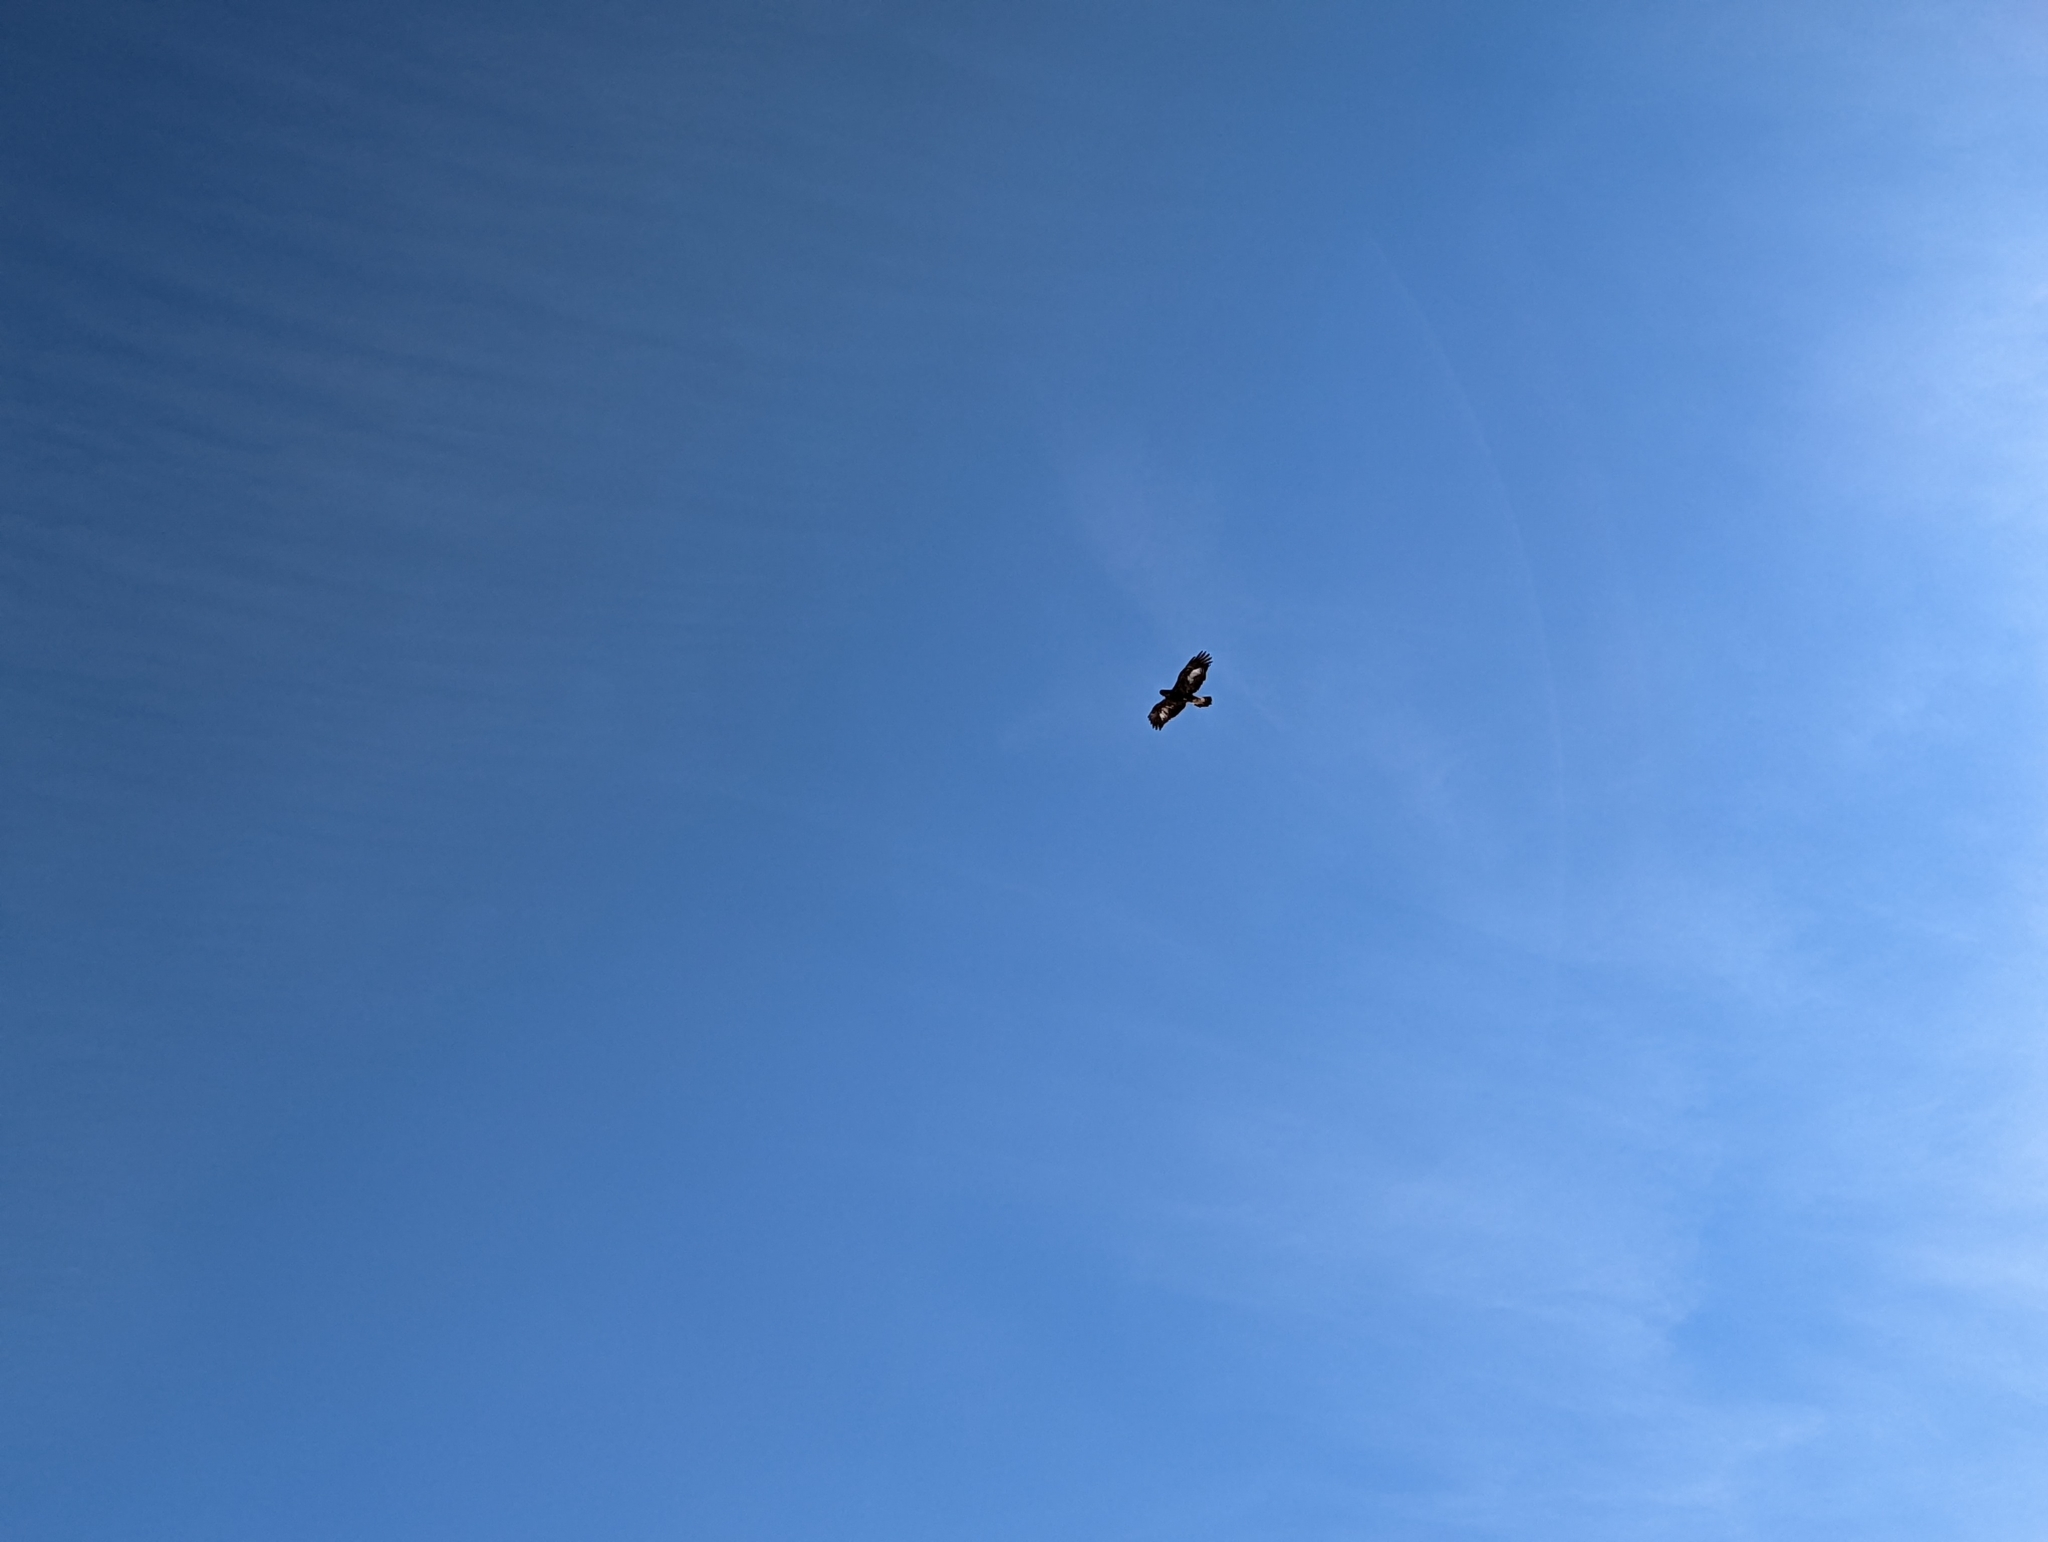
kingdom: Animalia
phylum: Chordata
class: Aves
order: Accipitriformes
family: Accipitridae
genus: Aquila
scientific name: Aquila chrysaetos
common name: Golden eagle
